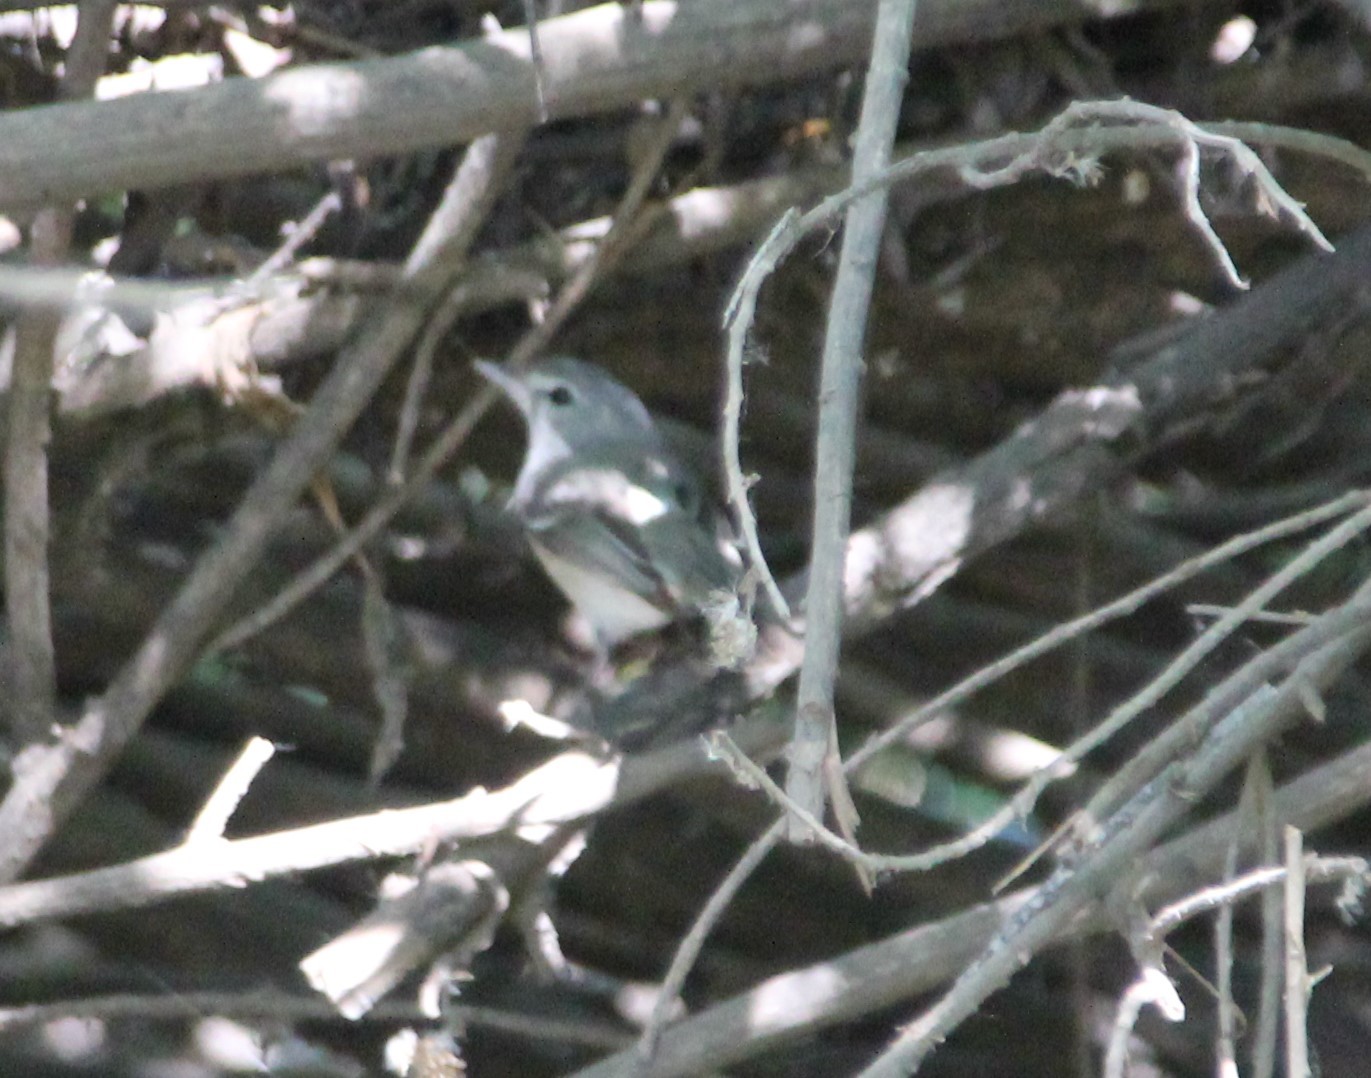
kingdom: Animalia
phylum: Chordata
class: Aves
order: Passeriformes
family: Vireonidae
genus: Vireo
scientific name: Vireo bellii
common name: Bell's vireo
